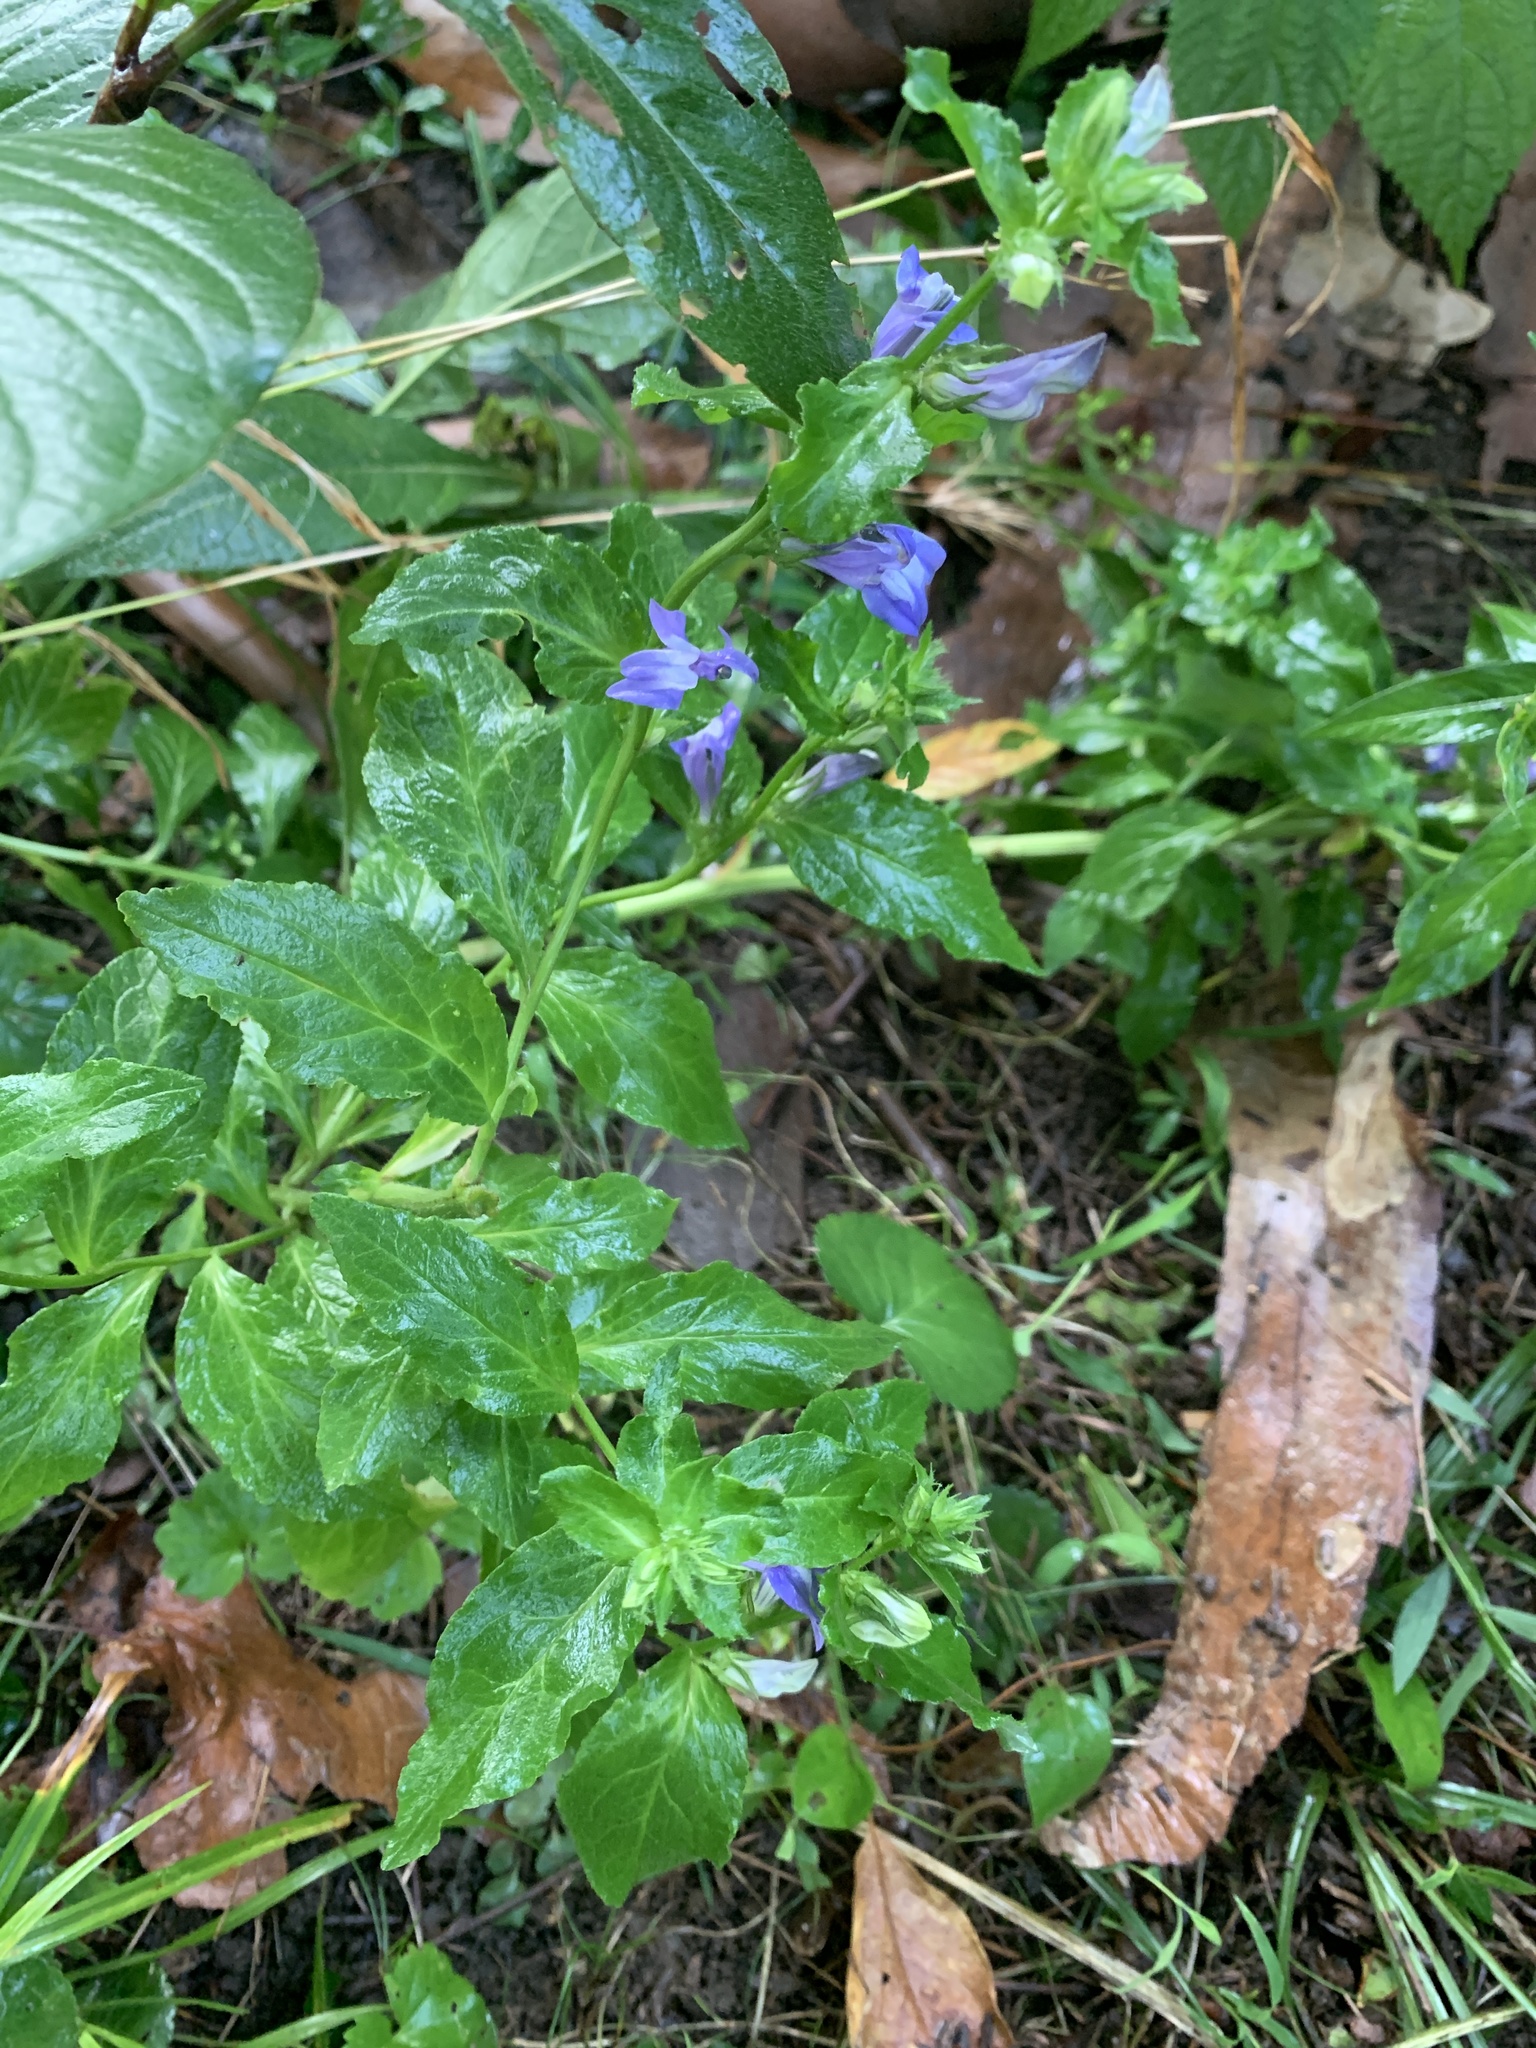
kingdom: Plantae
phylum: Tracheophyta
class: Magnoliopsida
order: Asterales
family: Campanulaceae
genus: Lobelia
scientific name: Lobelia siphilitica
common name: Great lobelia
